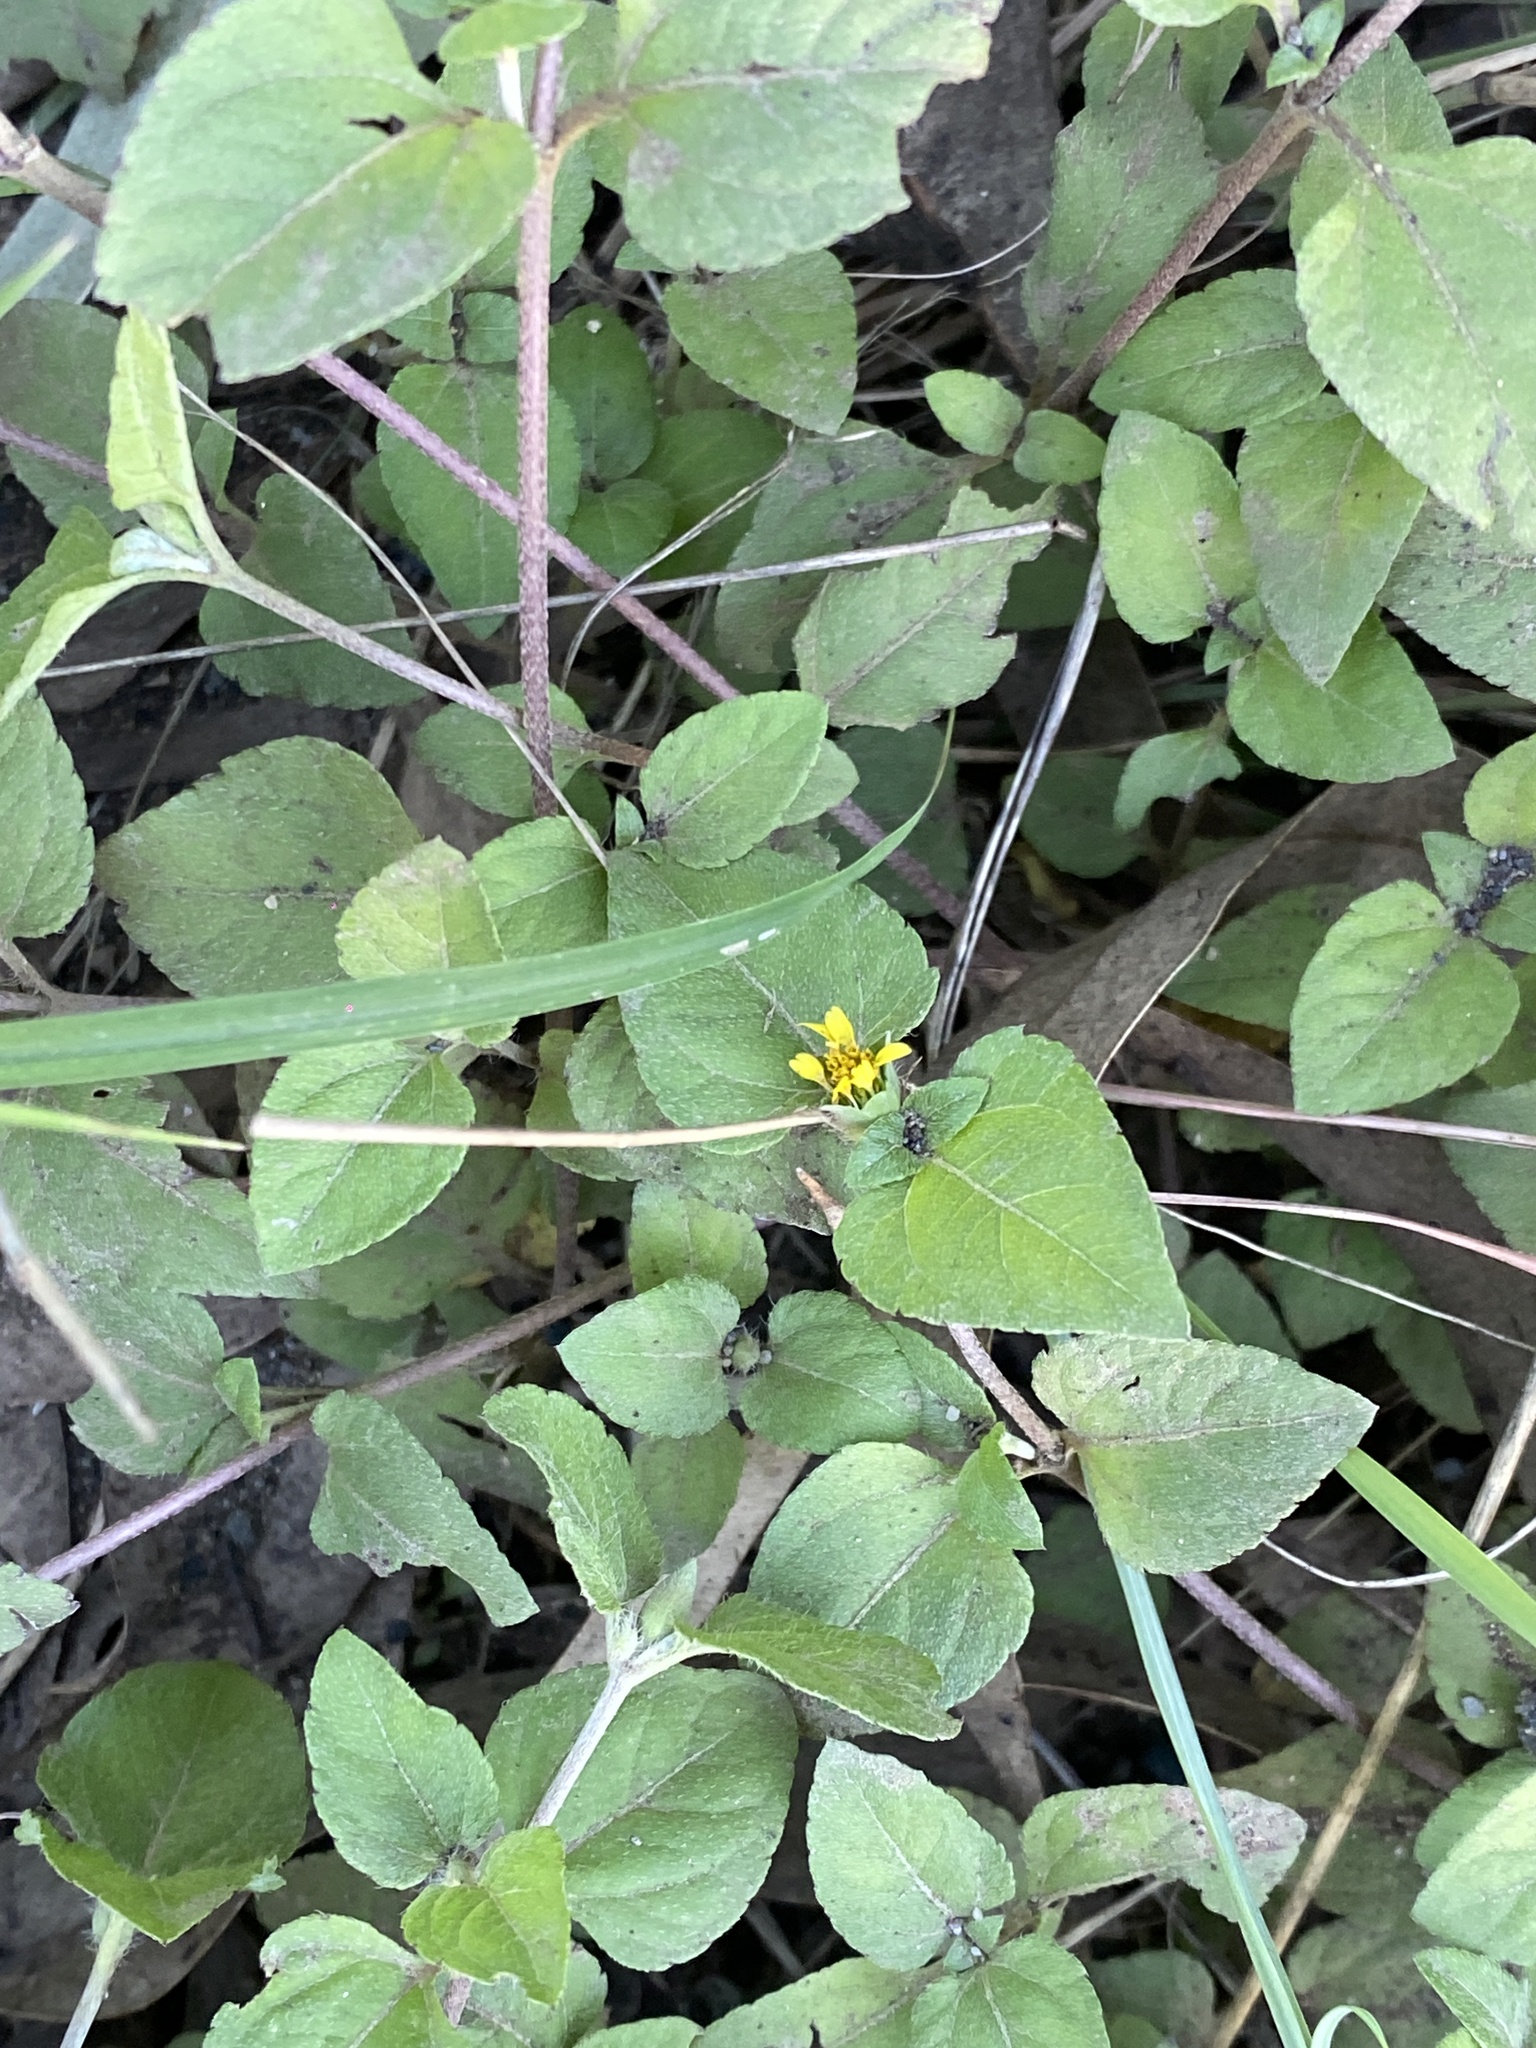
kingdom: Plantae
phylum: Tracheophyta
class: Magnoliopsida
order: Asterales
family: Asteraceae
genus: Calyptocarpus
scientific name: Calyptocarpus vialis
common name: Straggler daisy
